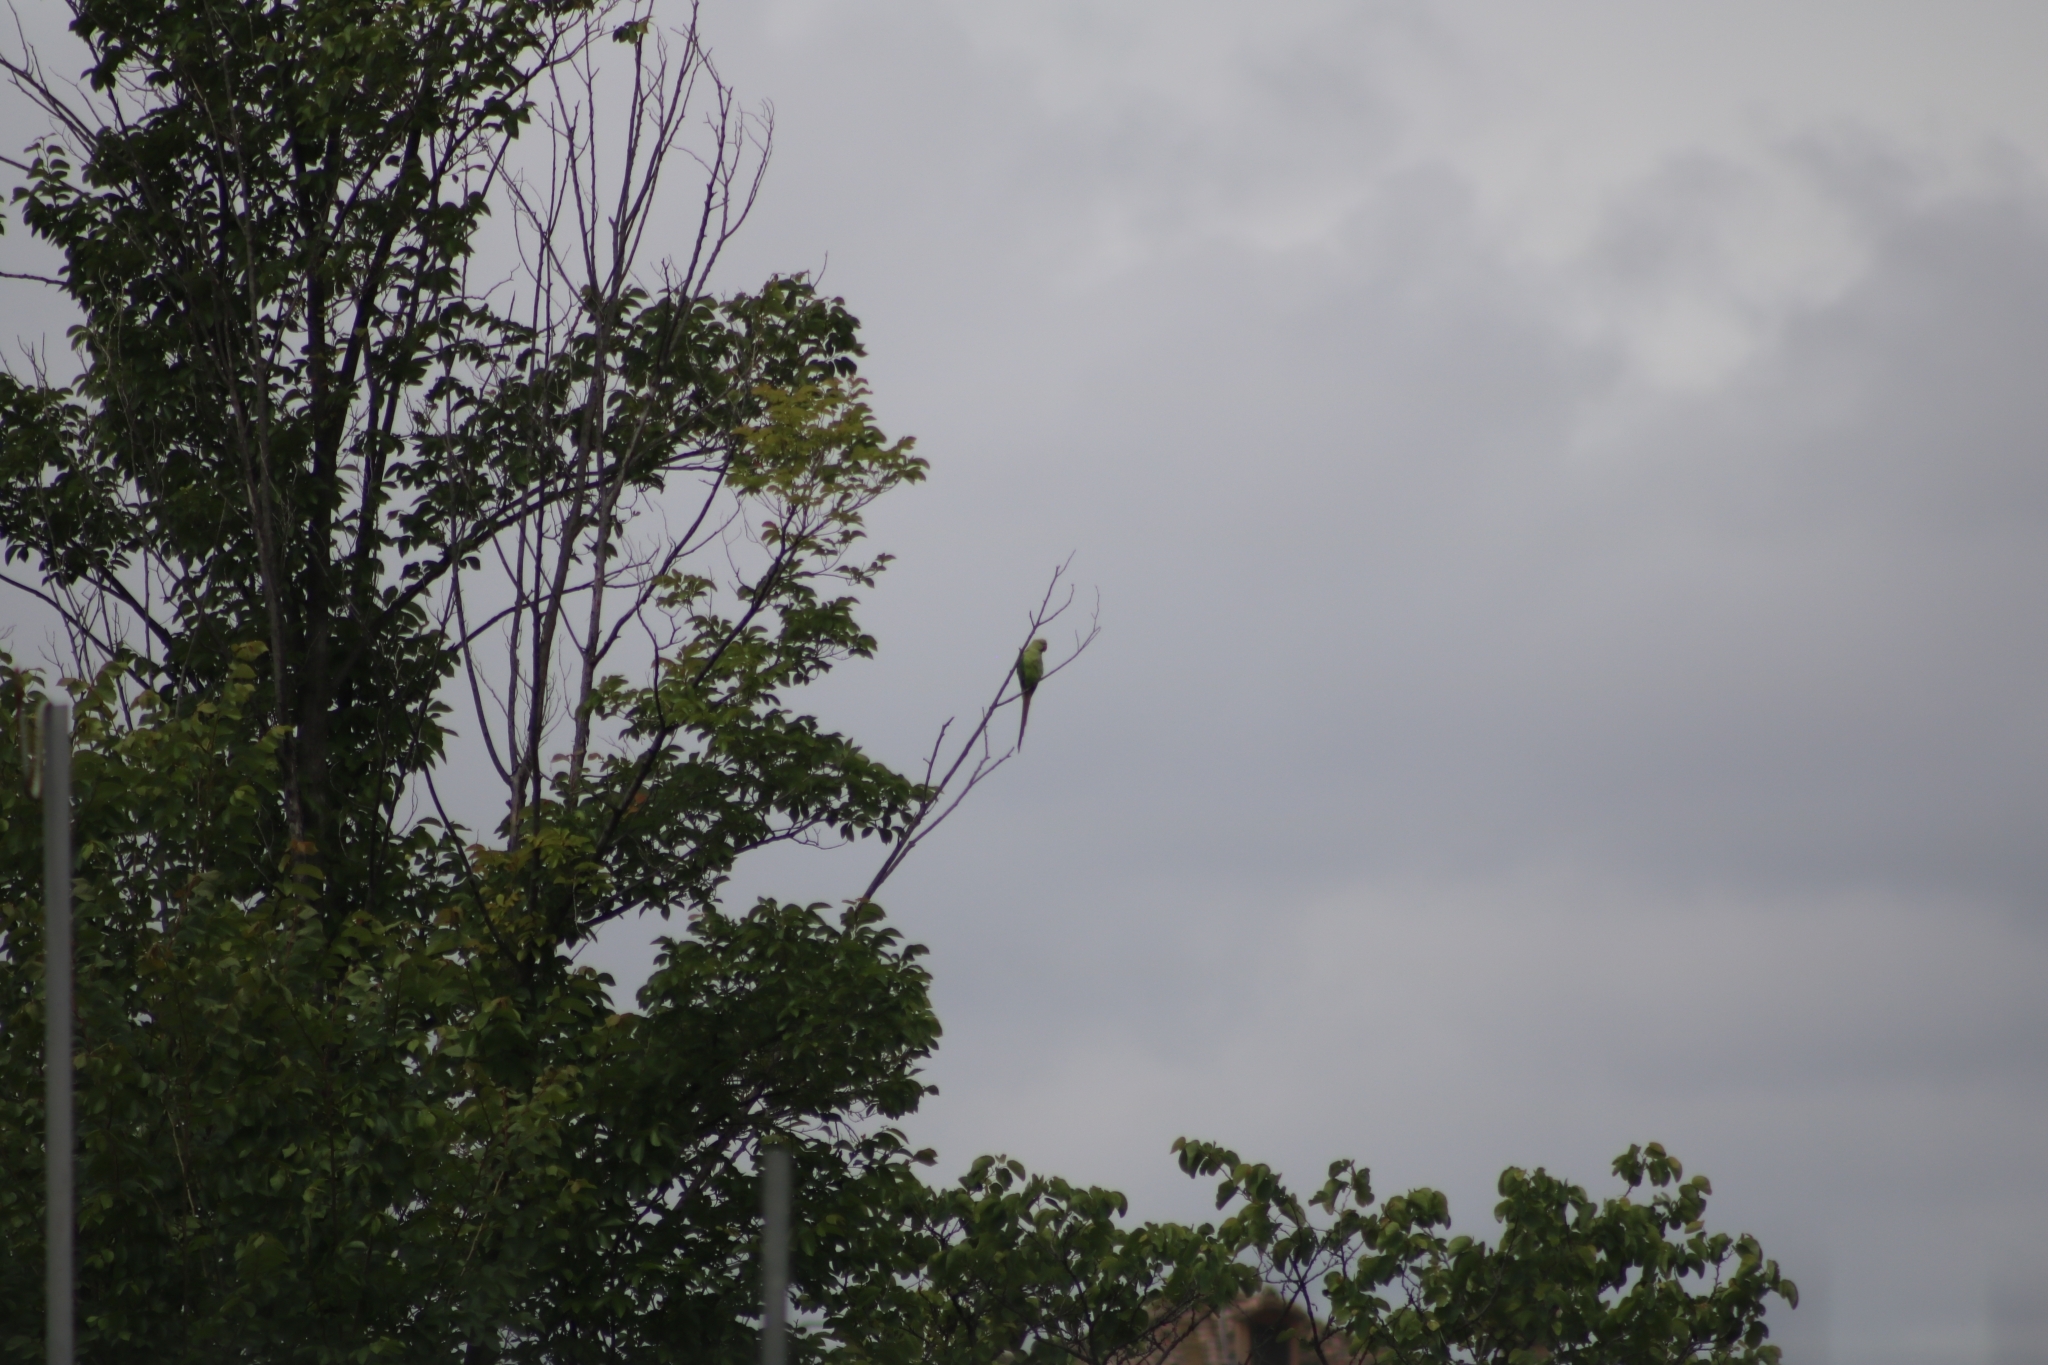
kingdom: Animalia
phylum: Chordata
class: Aves
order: Psittaciformes
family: Psittacidae
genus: Psittacula
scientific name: Psittacula krameri
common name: Rose-ringed parakeet
